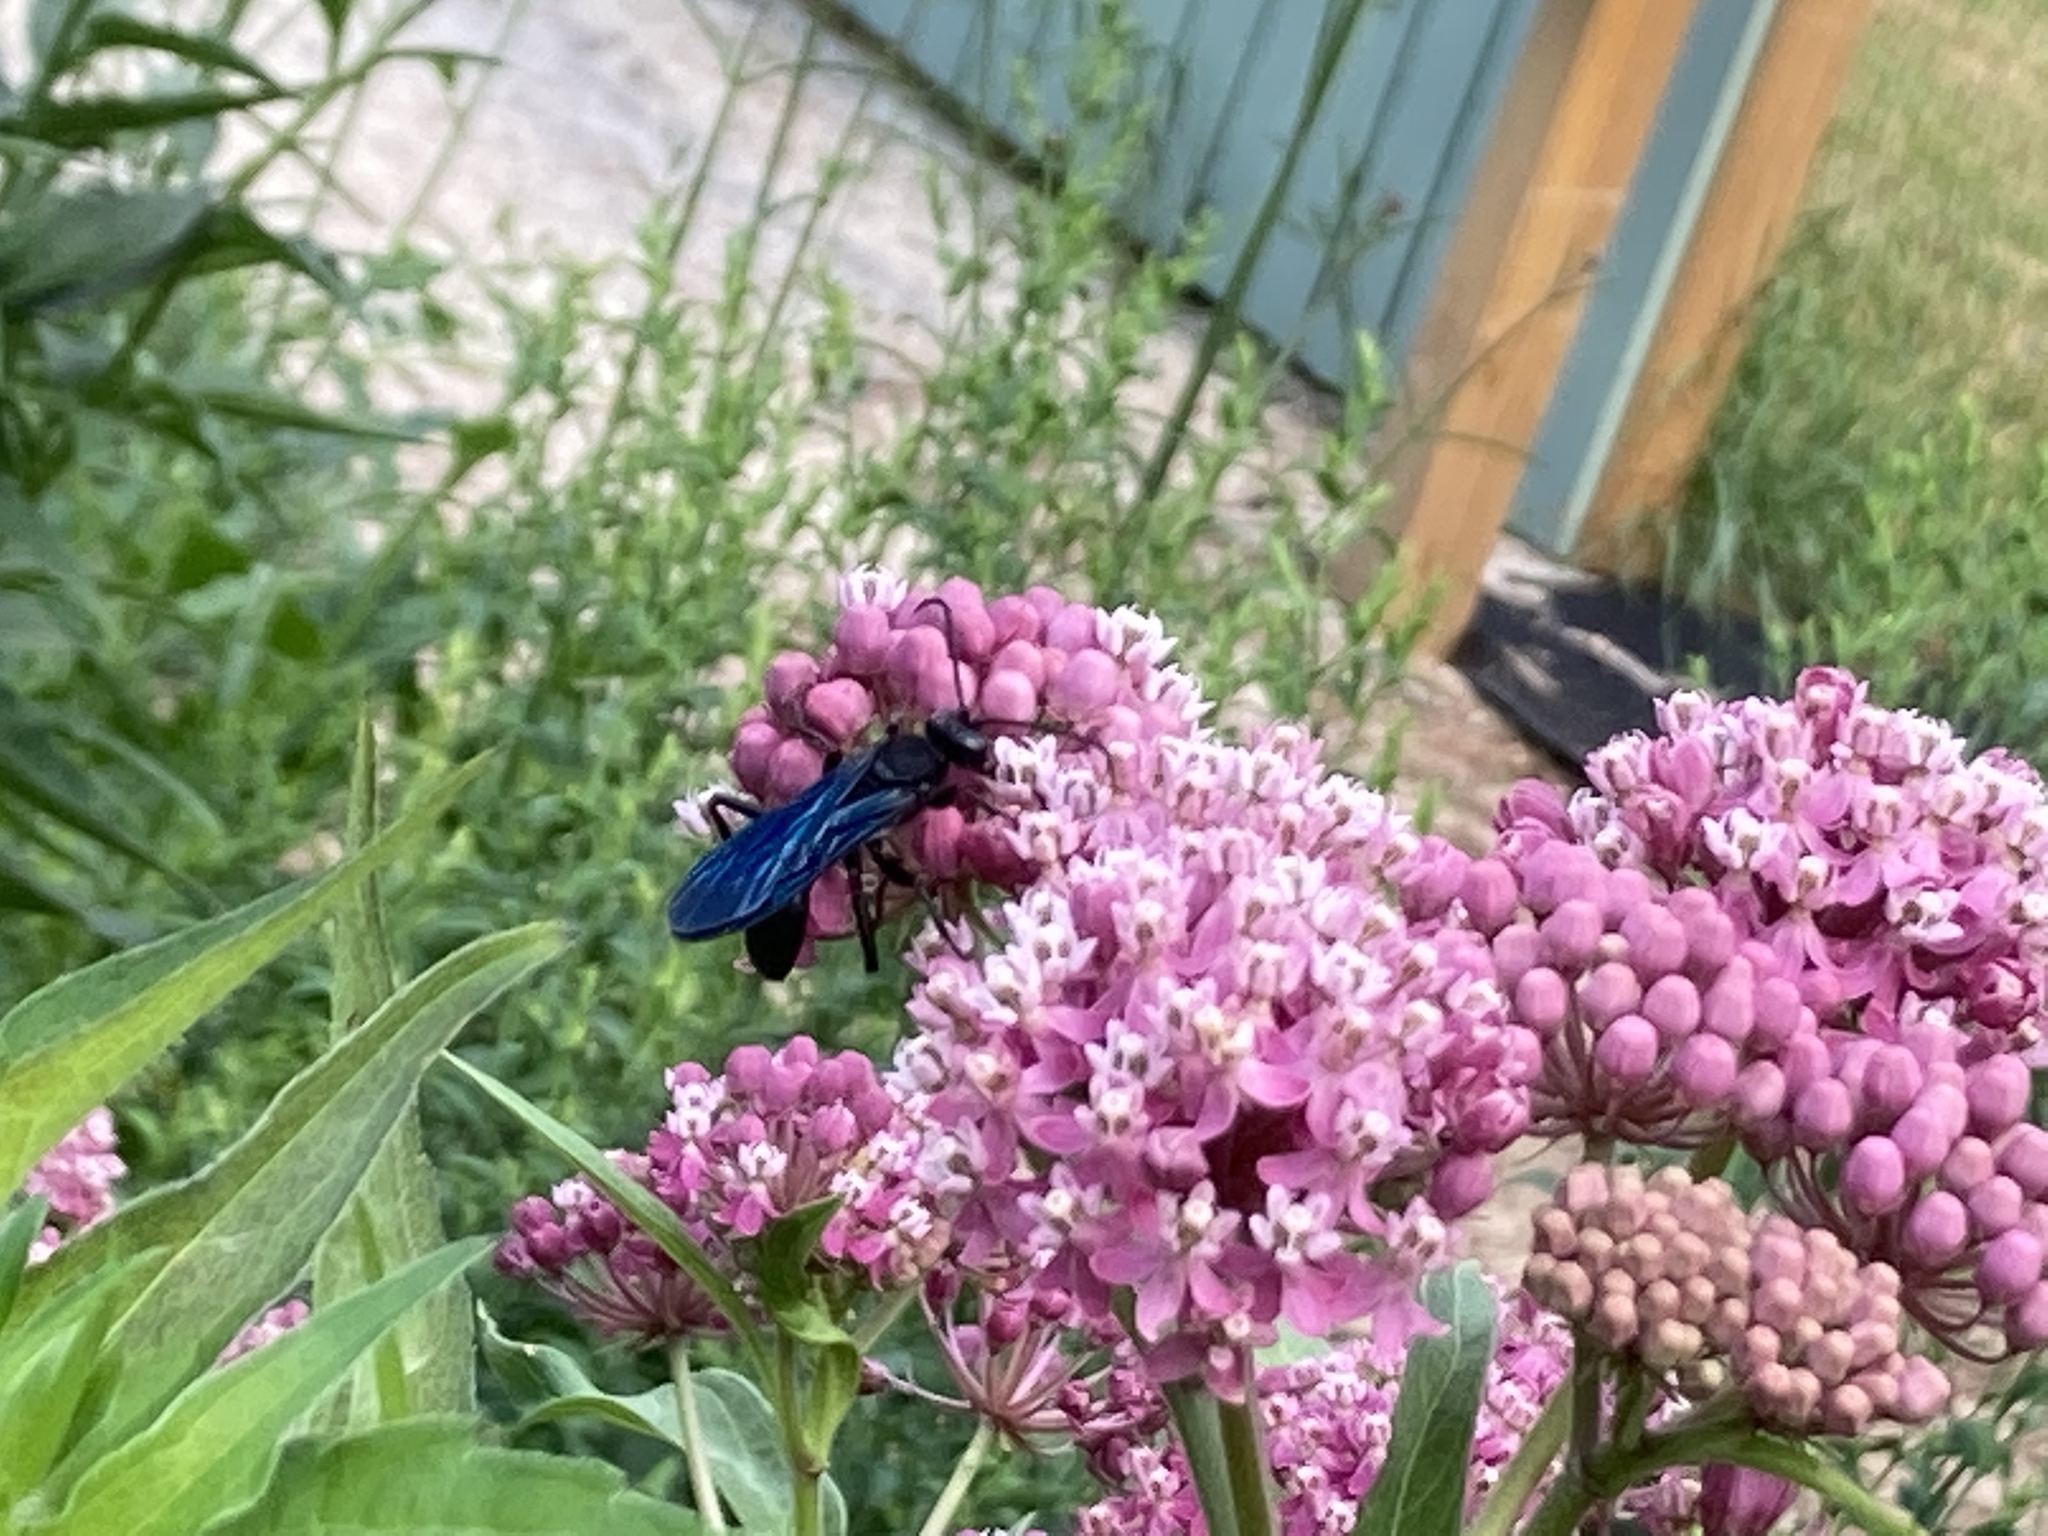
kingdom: Animalia
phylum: Arthropoda
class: Insecta
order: Hymenoptera
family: Sphecidae
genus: Sphex
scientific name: Sphex pensylvanicus
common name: Great black digger wasp
